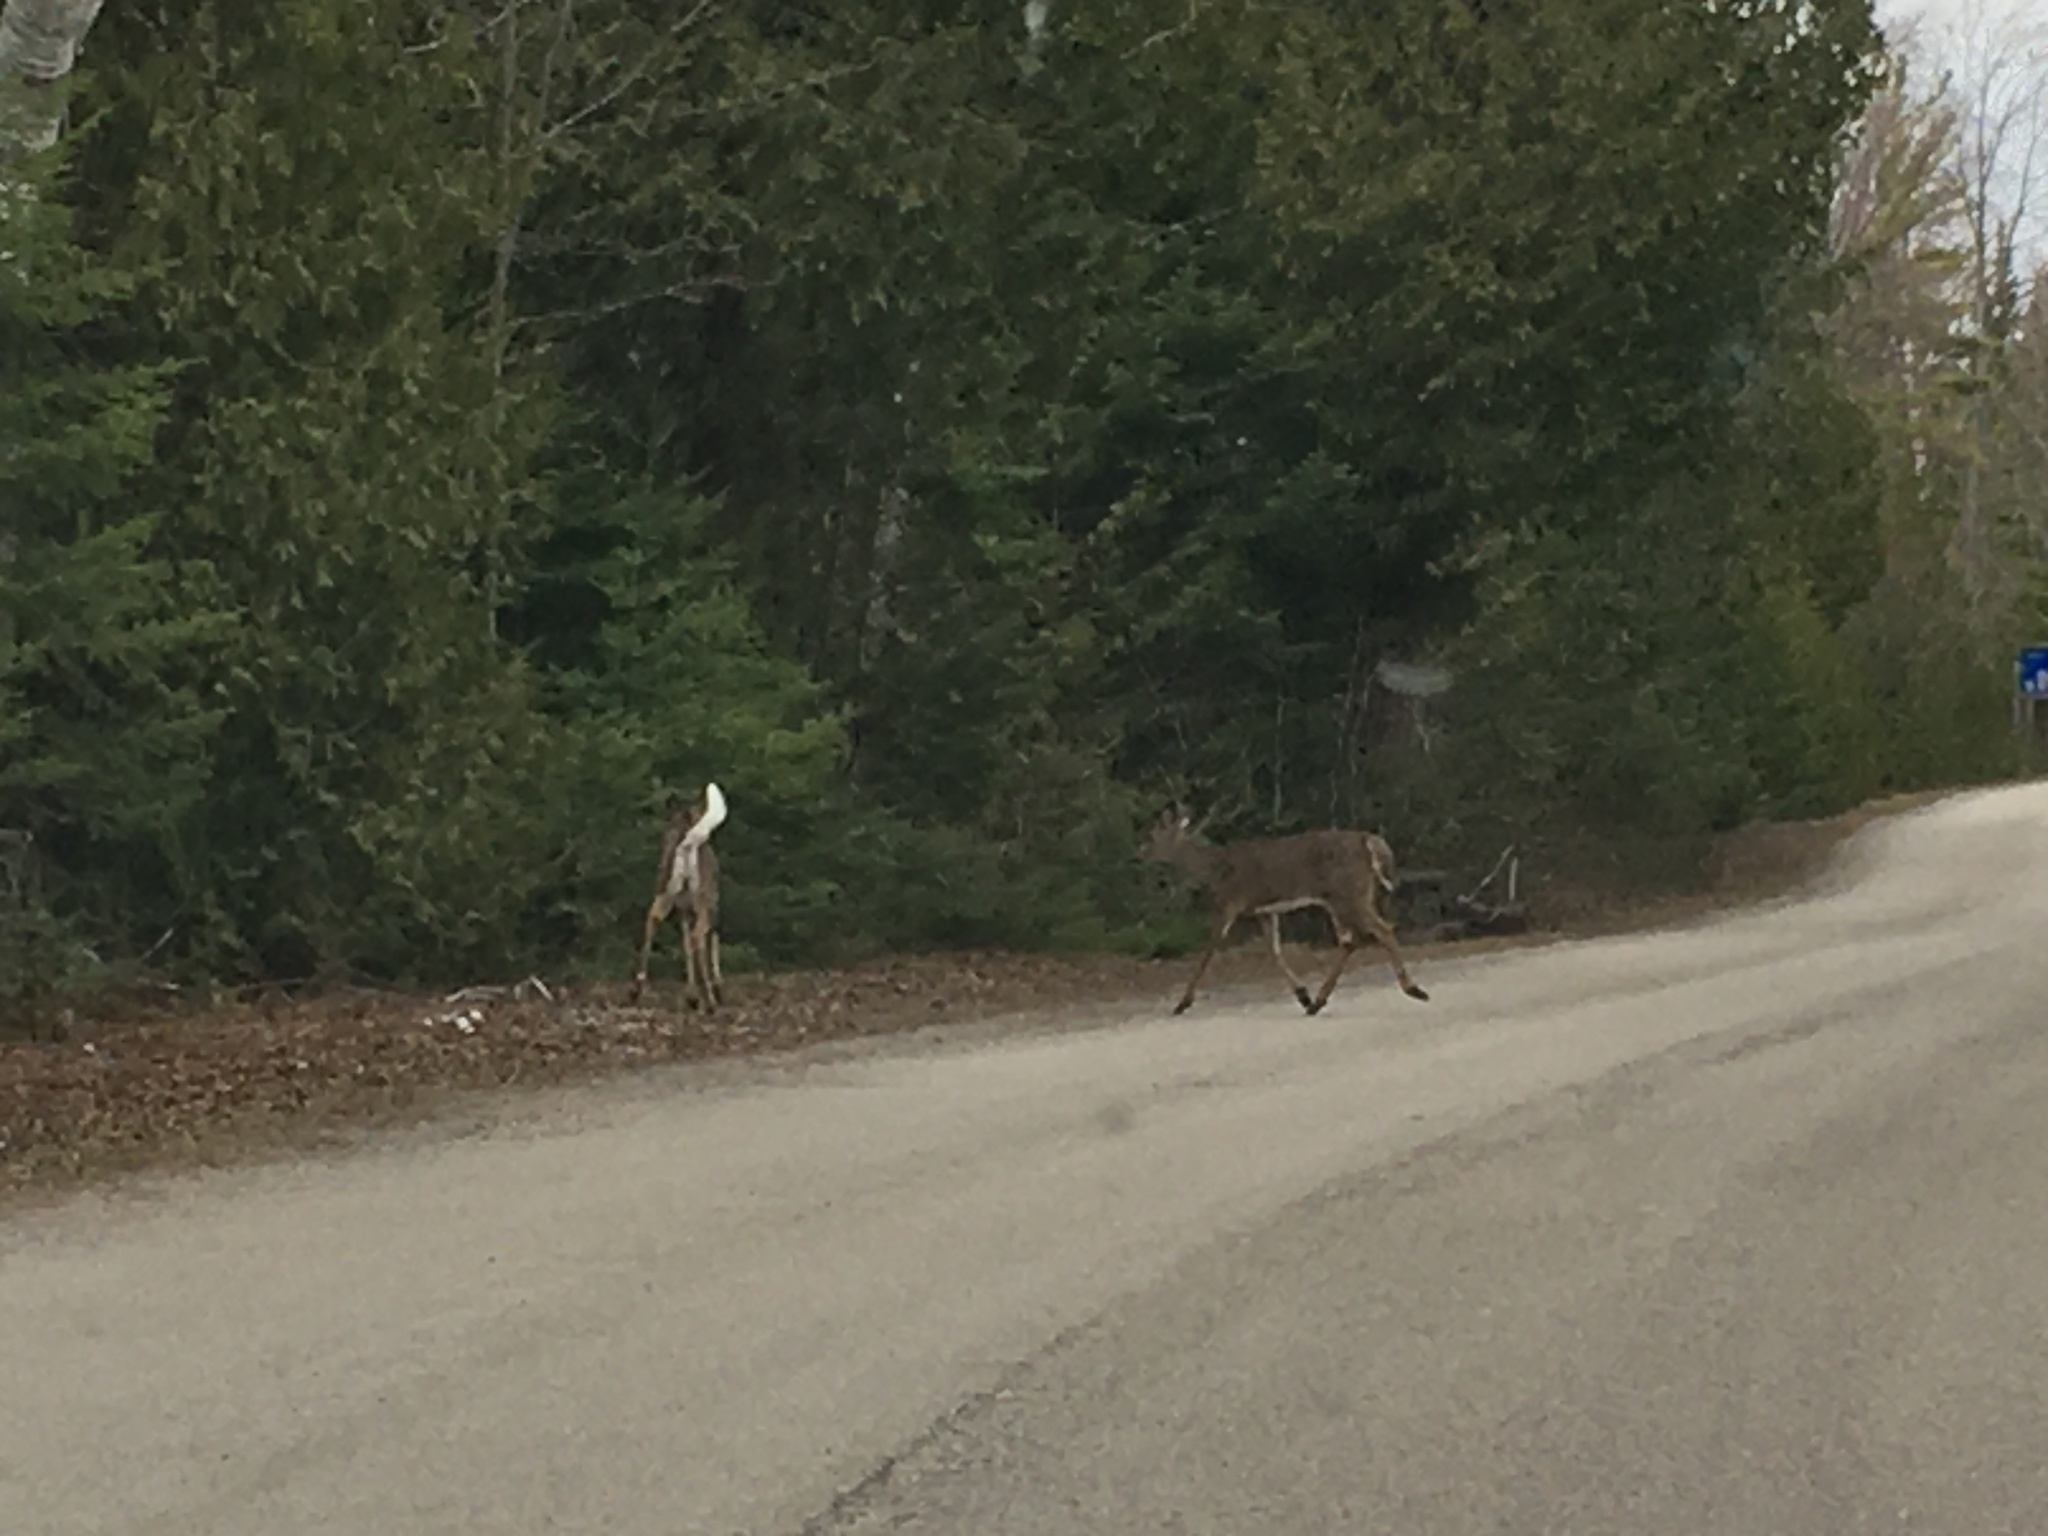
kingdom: Animalia
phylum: Chordata
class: Mammalia
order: Artiodactyla
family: Cervidae
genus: Odocoileus
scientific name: Odocoileus virginianus
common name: White-tailed deer
